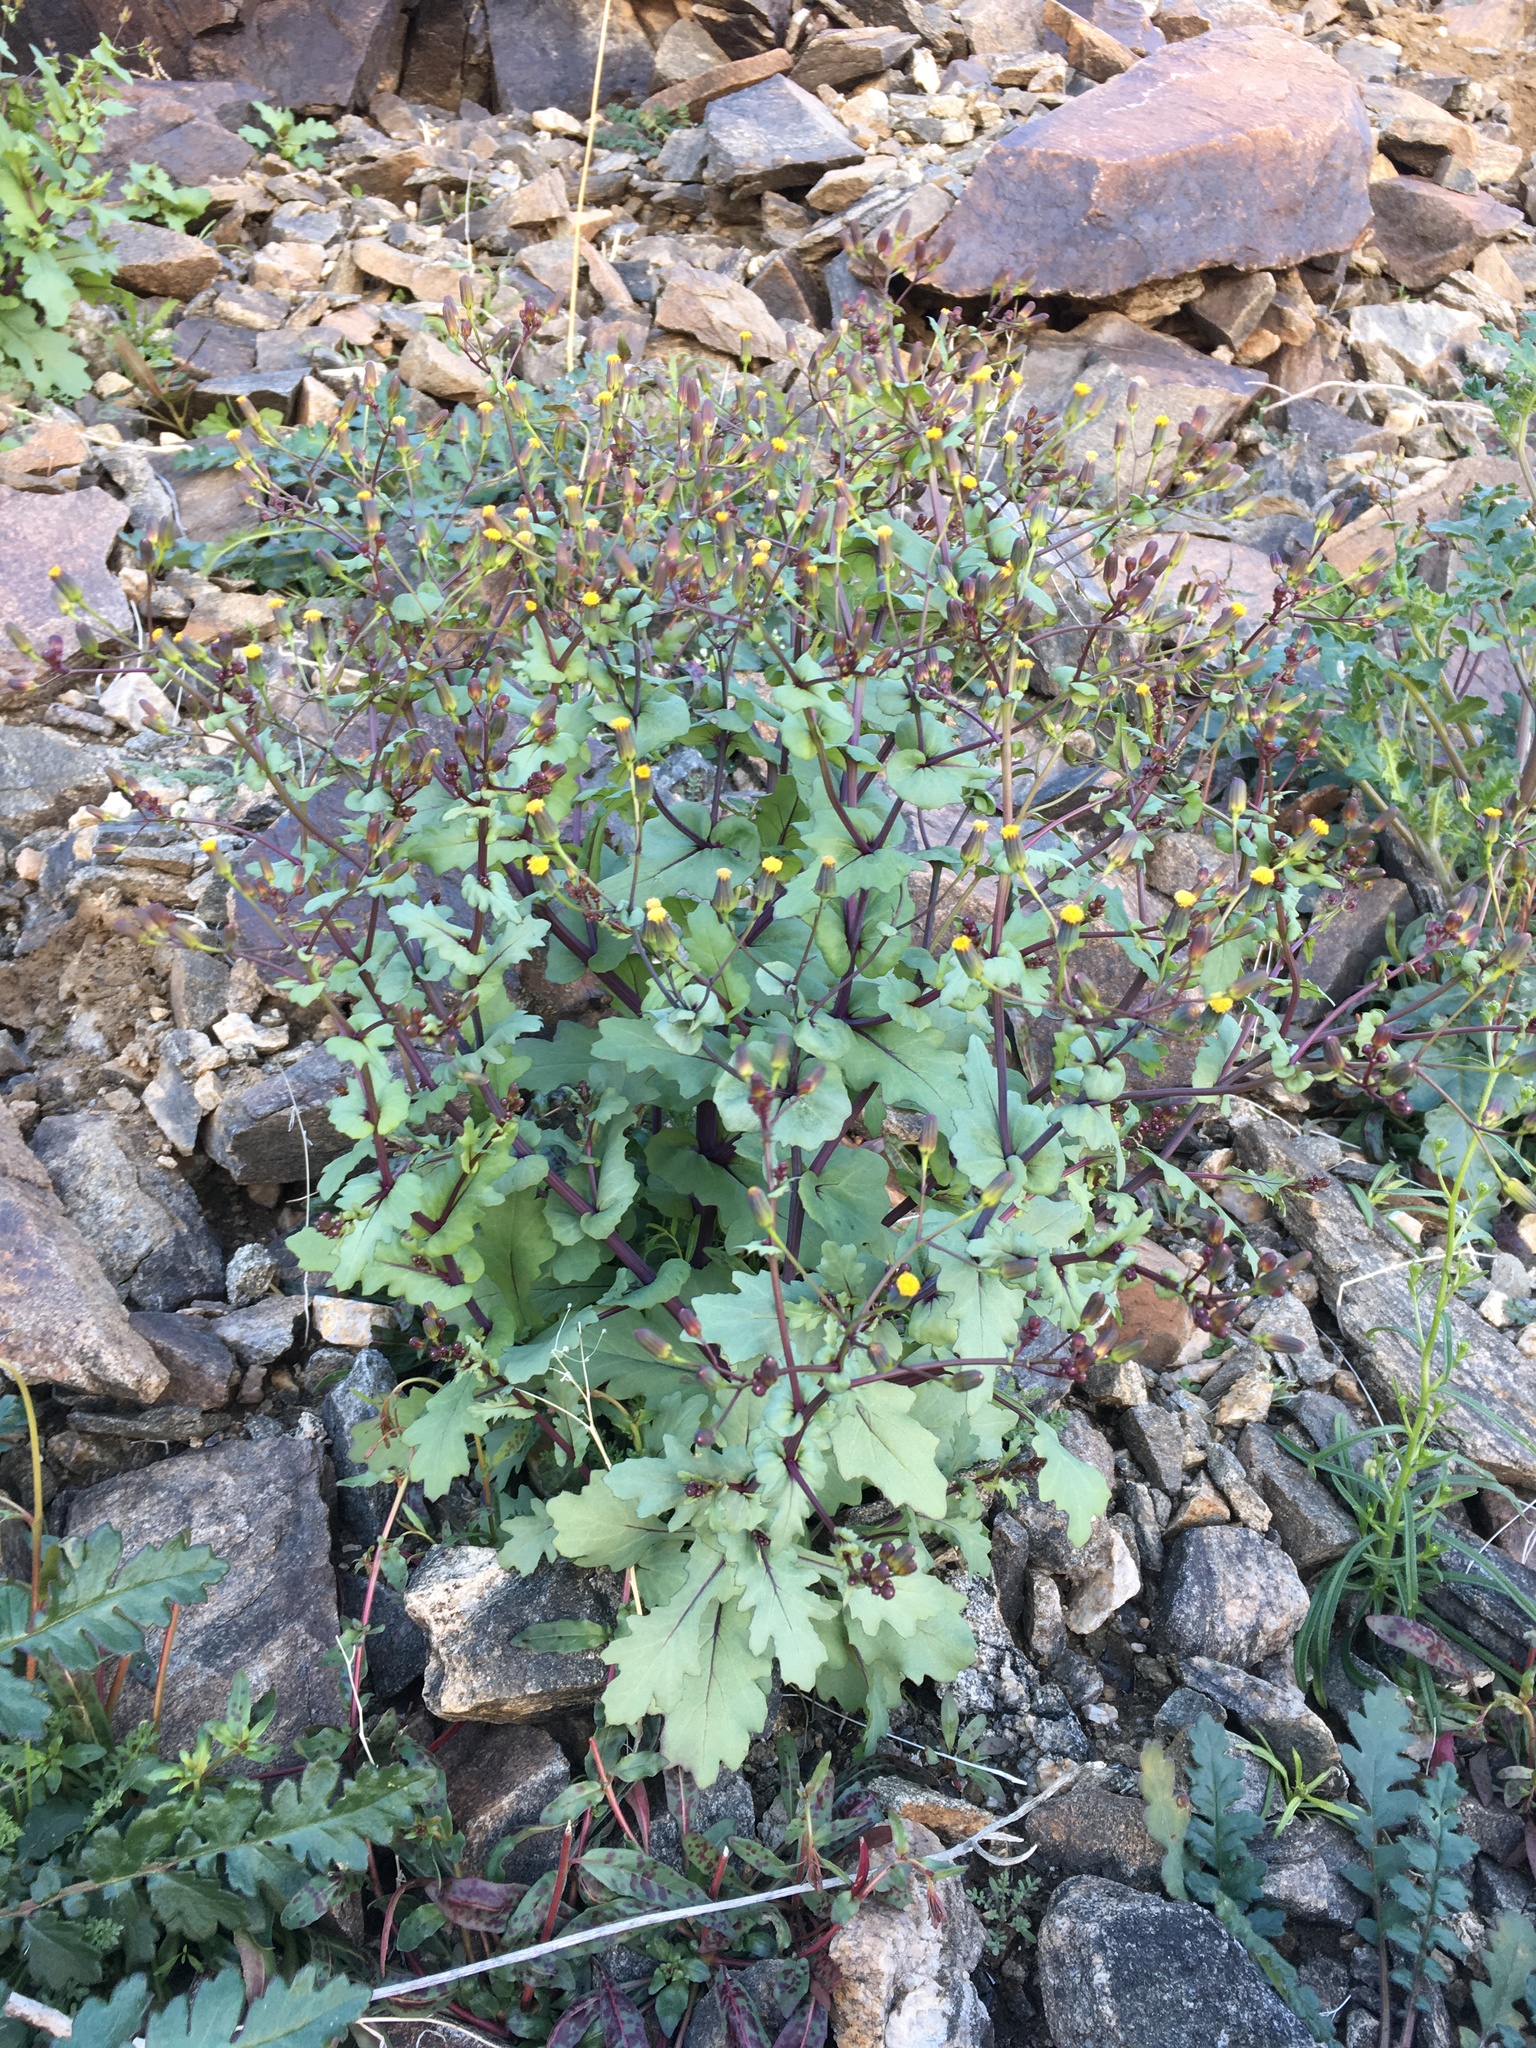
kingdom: Plantae
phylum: Tracheophyta
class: Magnoliopsida
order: Asterales
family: Asteraceae
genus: Senecio
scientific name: Senecio mohavensis
